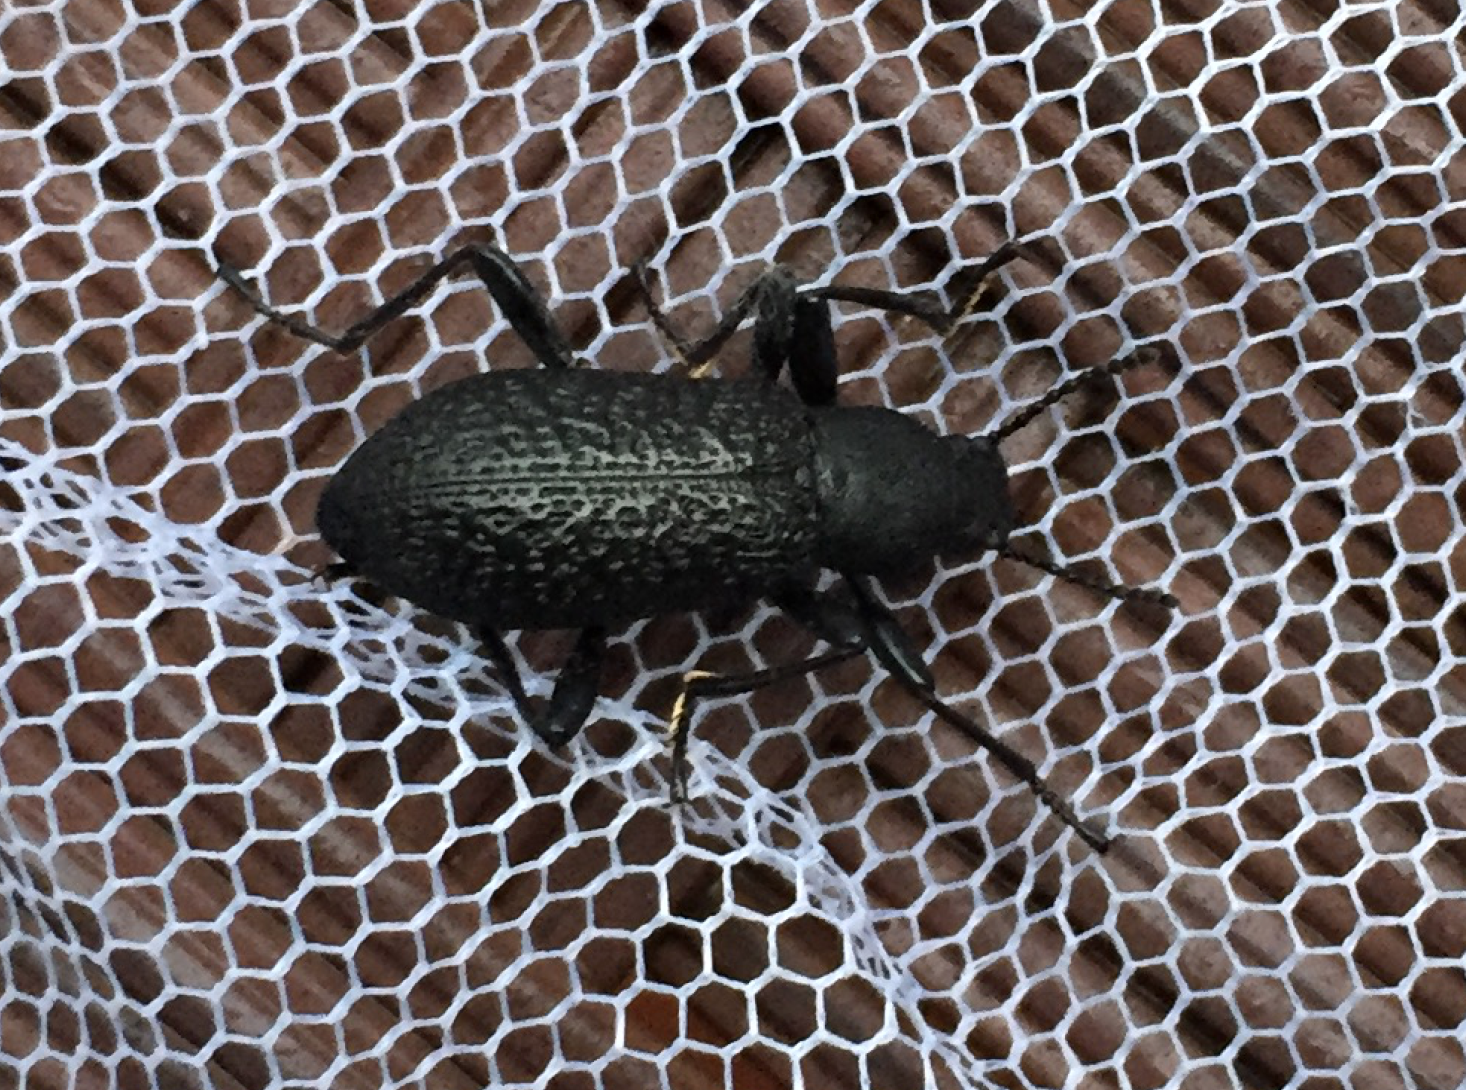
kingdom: Animalia
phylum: Arthropoda
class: Insecta
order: Coleoptera
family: Tenebrionidae
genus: Upis
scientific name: Upis ceramboides
